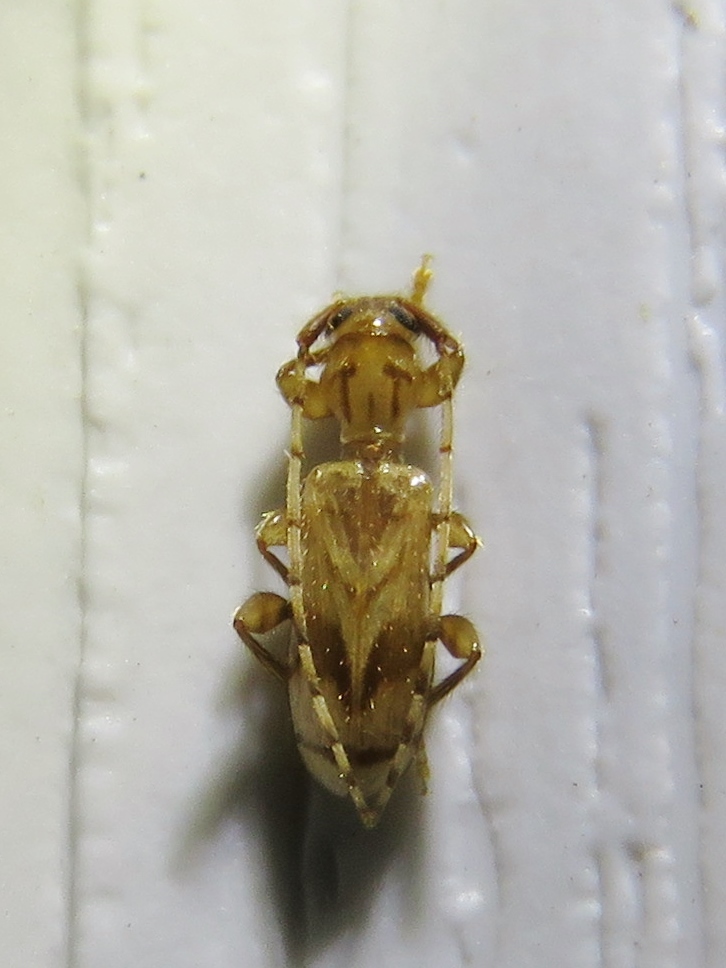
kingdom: Animalia
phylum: Arthropoda
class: Insecta
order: Coleoptera
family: Cerambycidae
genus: Obrium
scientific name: Obrium maculatum
